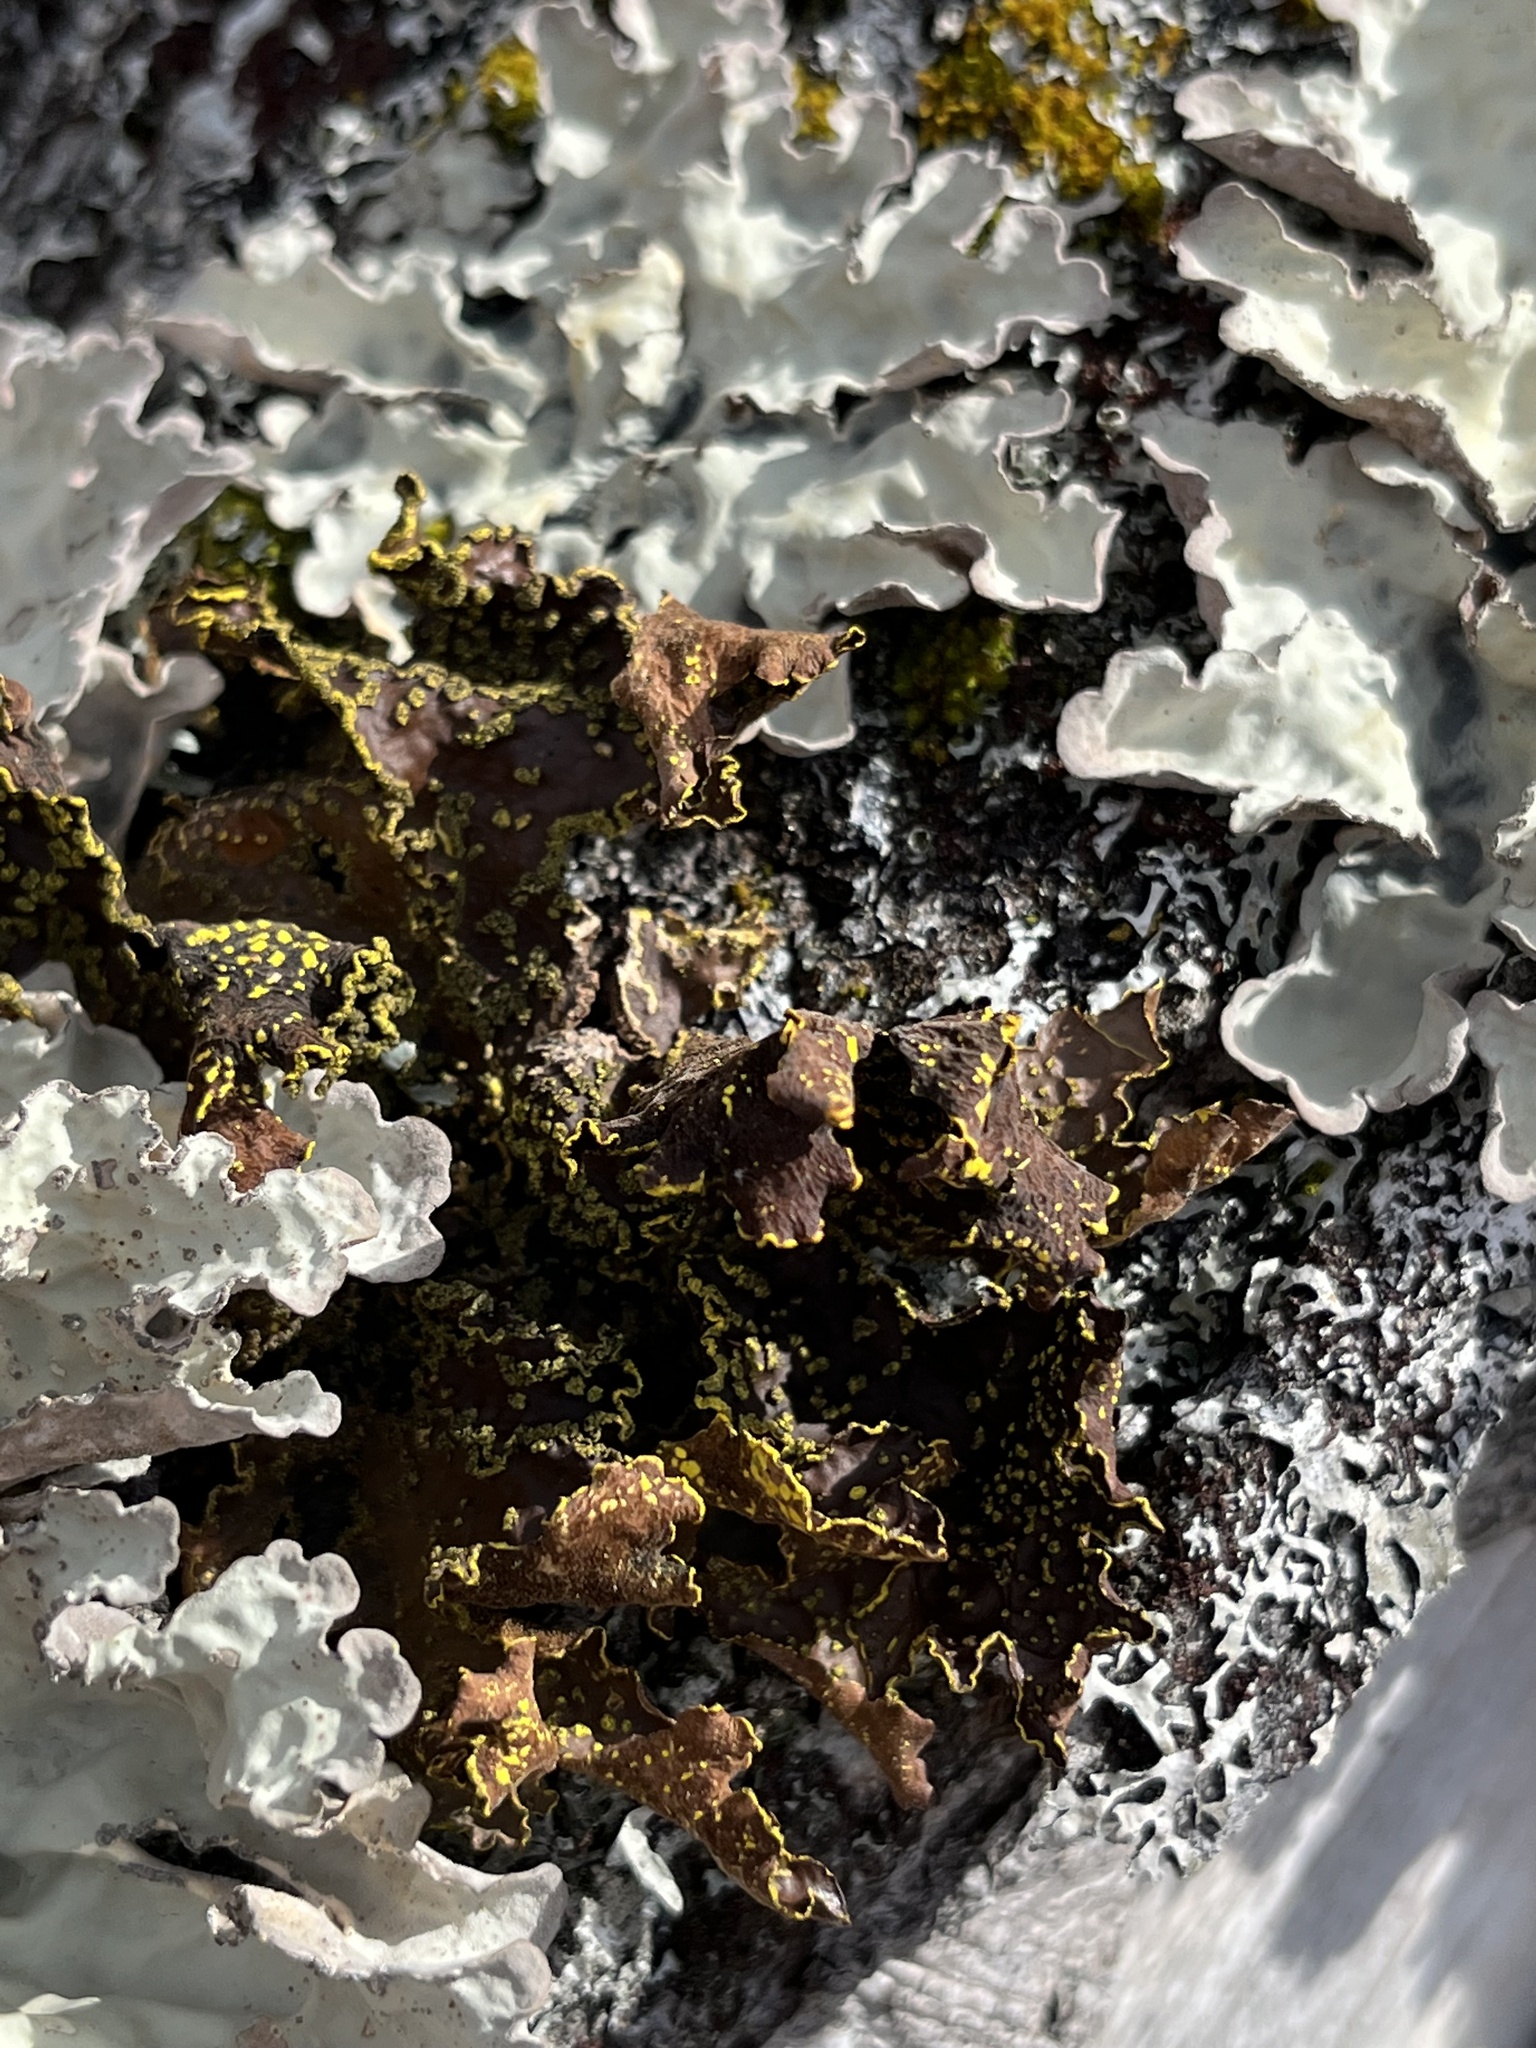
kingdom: Fungi
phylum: Ascomycota
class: Lecanoromycetes
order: Peltigerales
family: Lobariaceae
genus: Pseudocyphellaria
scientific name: Pseudocyphellaria holarctica
